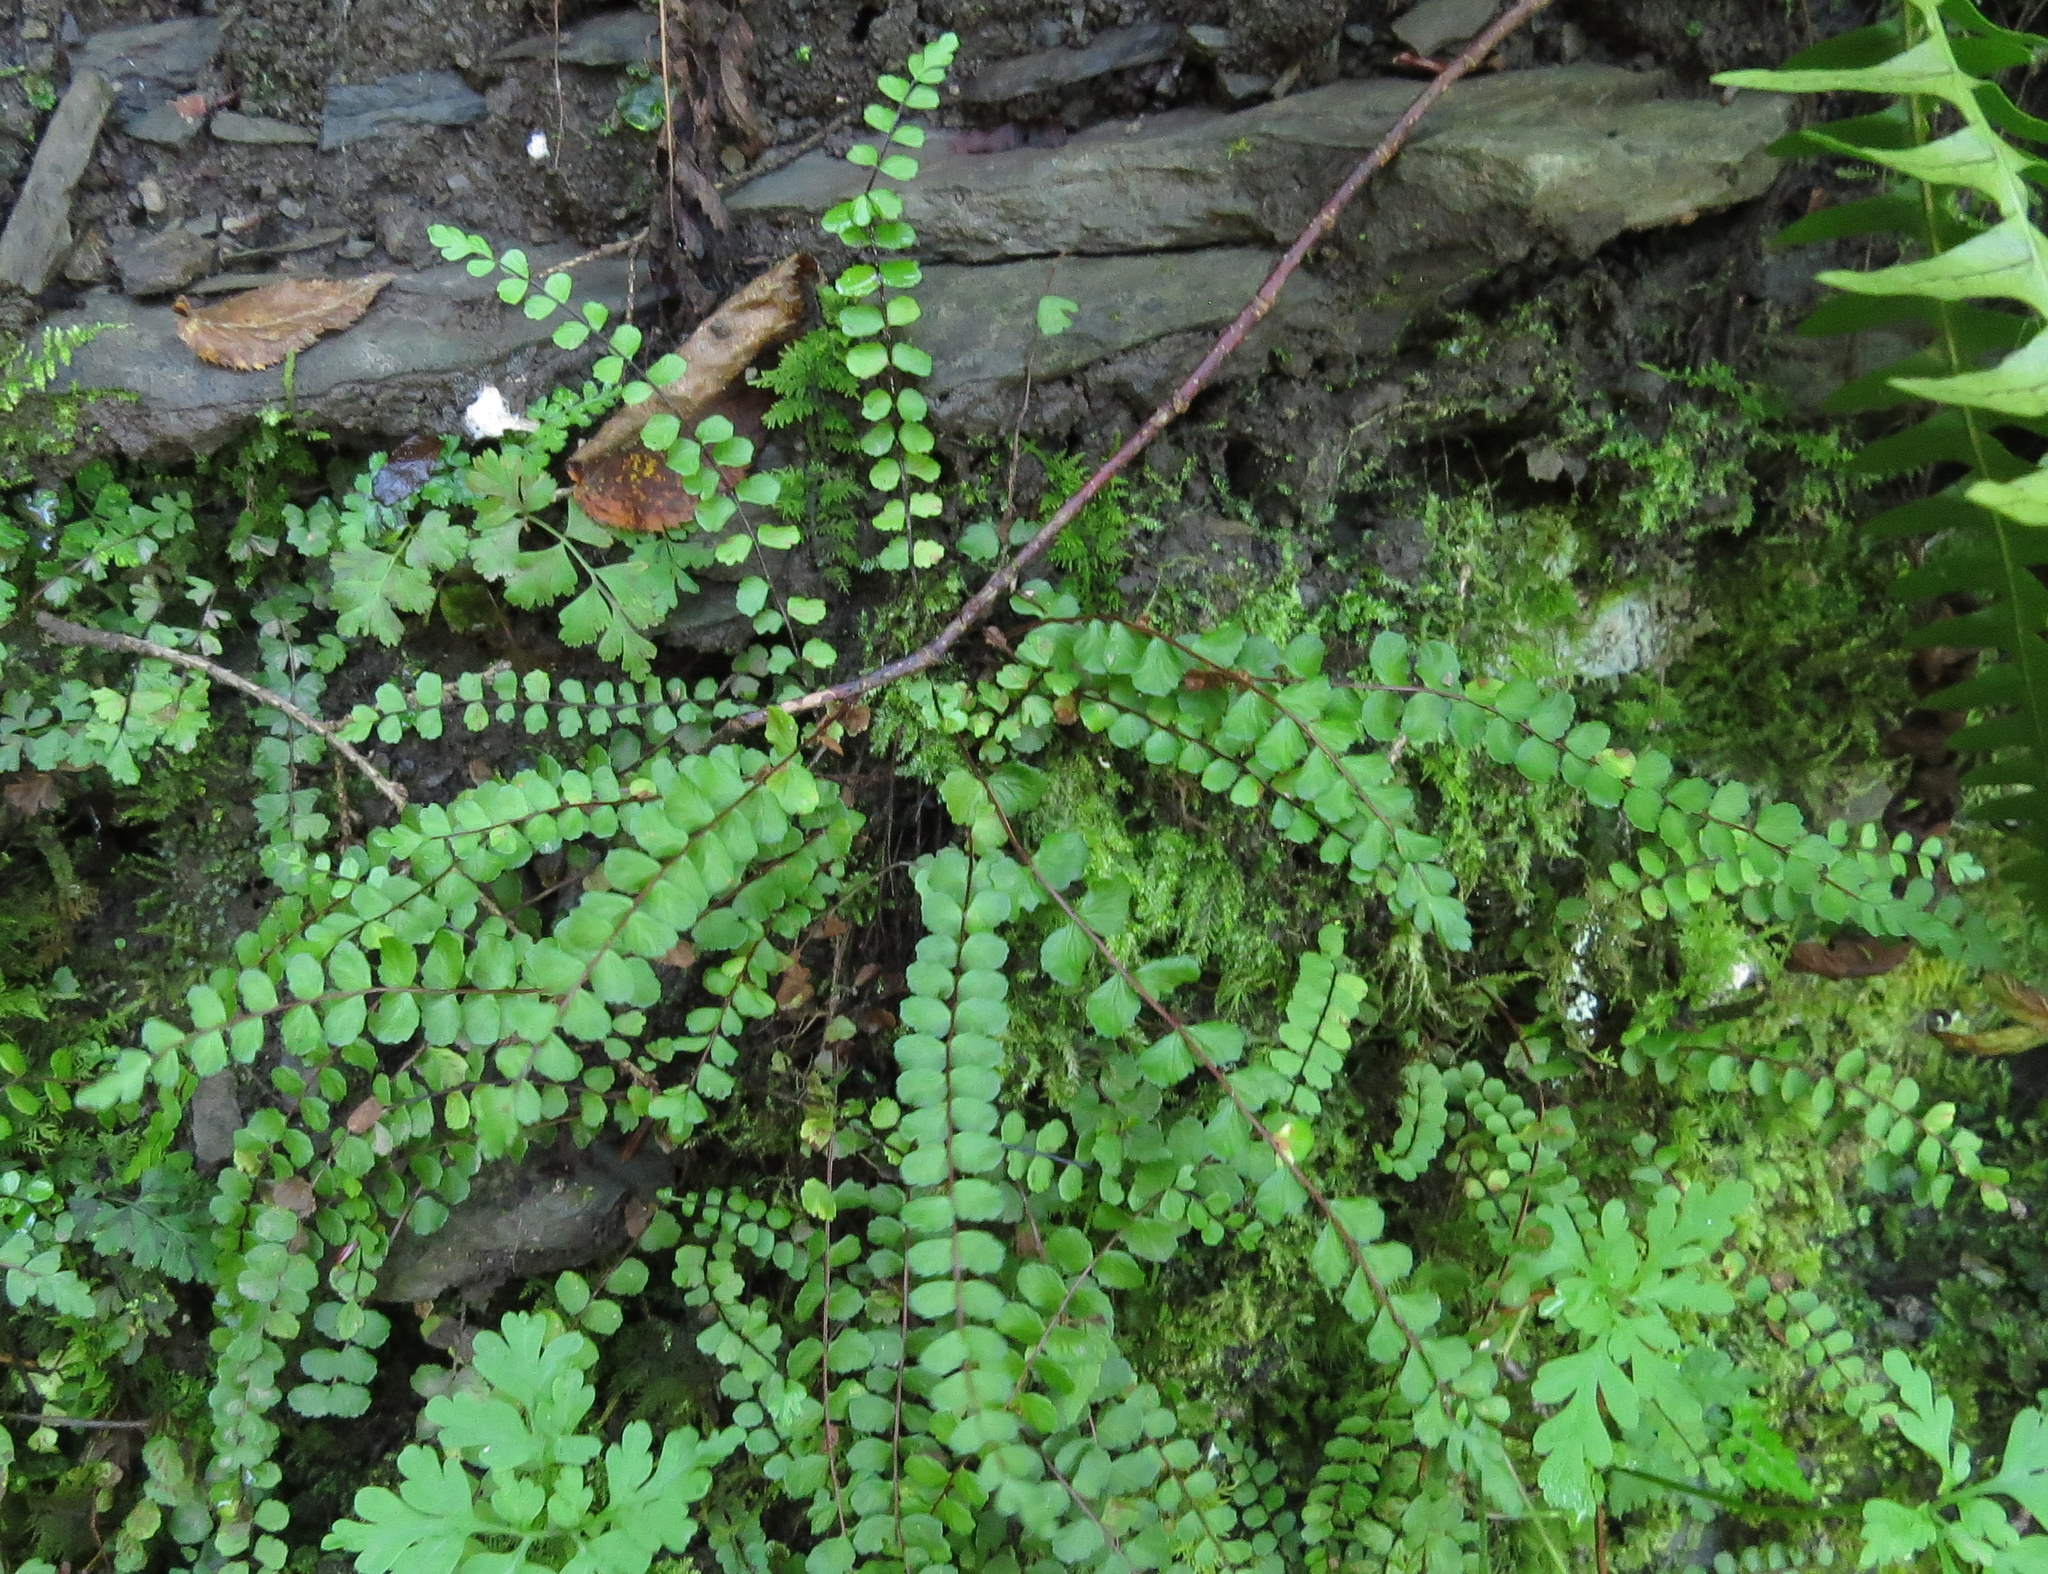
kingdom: Plantae
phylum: Tracheophyta
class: Polypodiopsida
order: Polypodiales
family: Aspleniaceae
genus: Asplenium
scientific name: Asplenium trichomanes
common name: Maidenhair spleenwort
